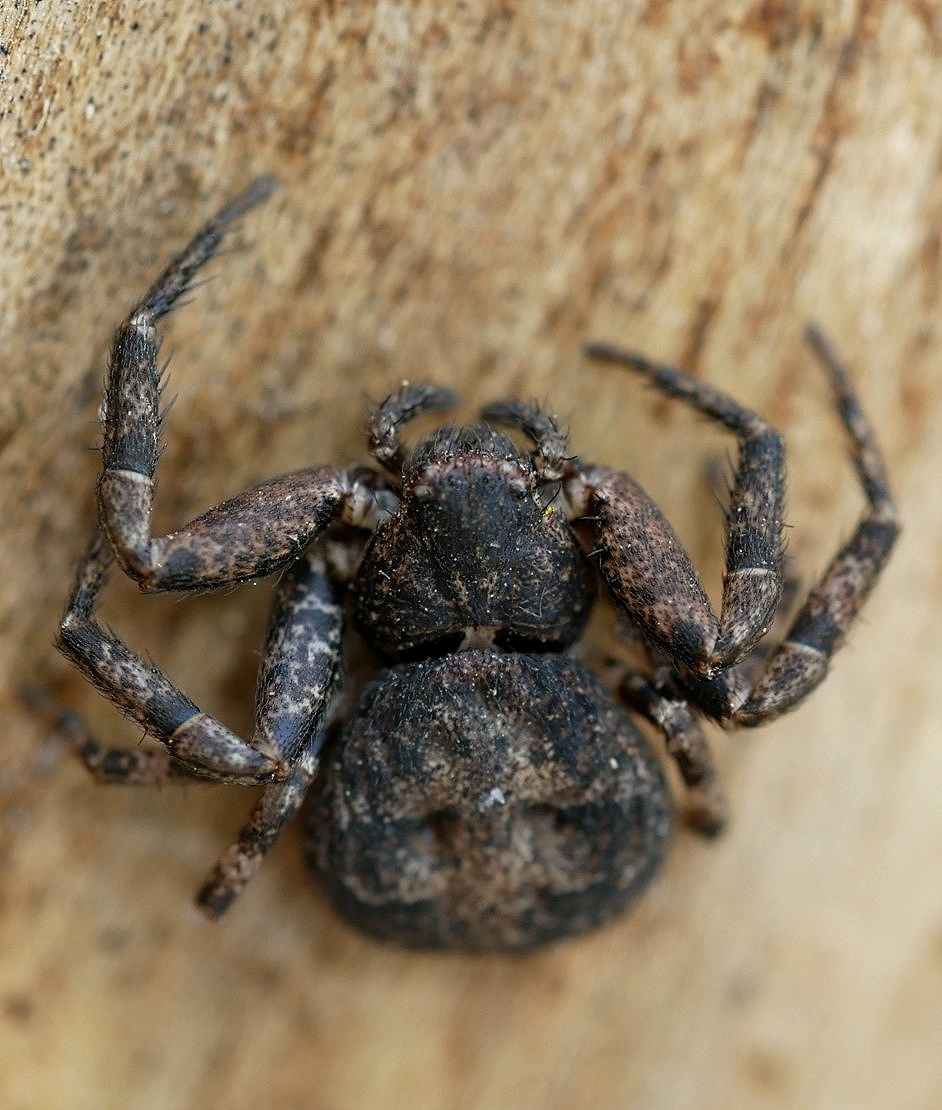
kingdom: Animalia
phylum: Arthropoda
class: Arachnida
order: Araneae
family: Thomisidae
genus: Bassaniana
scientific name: Bassaniana utahensis
